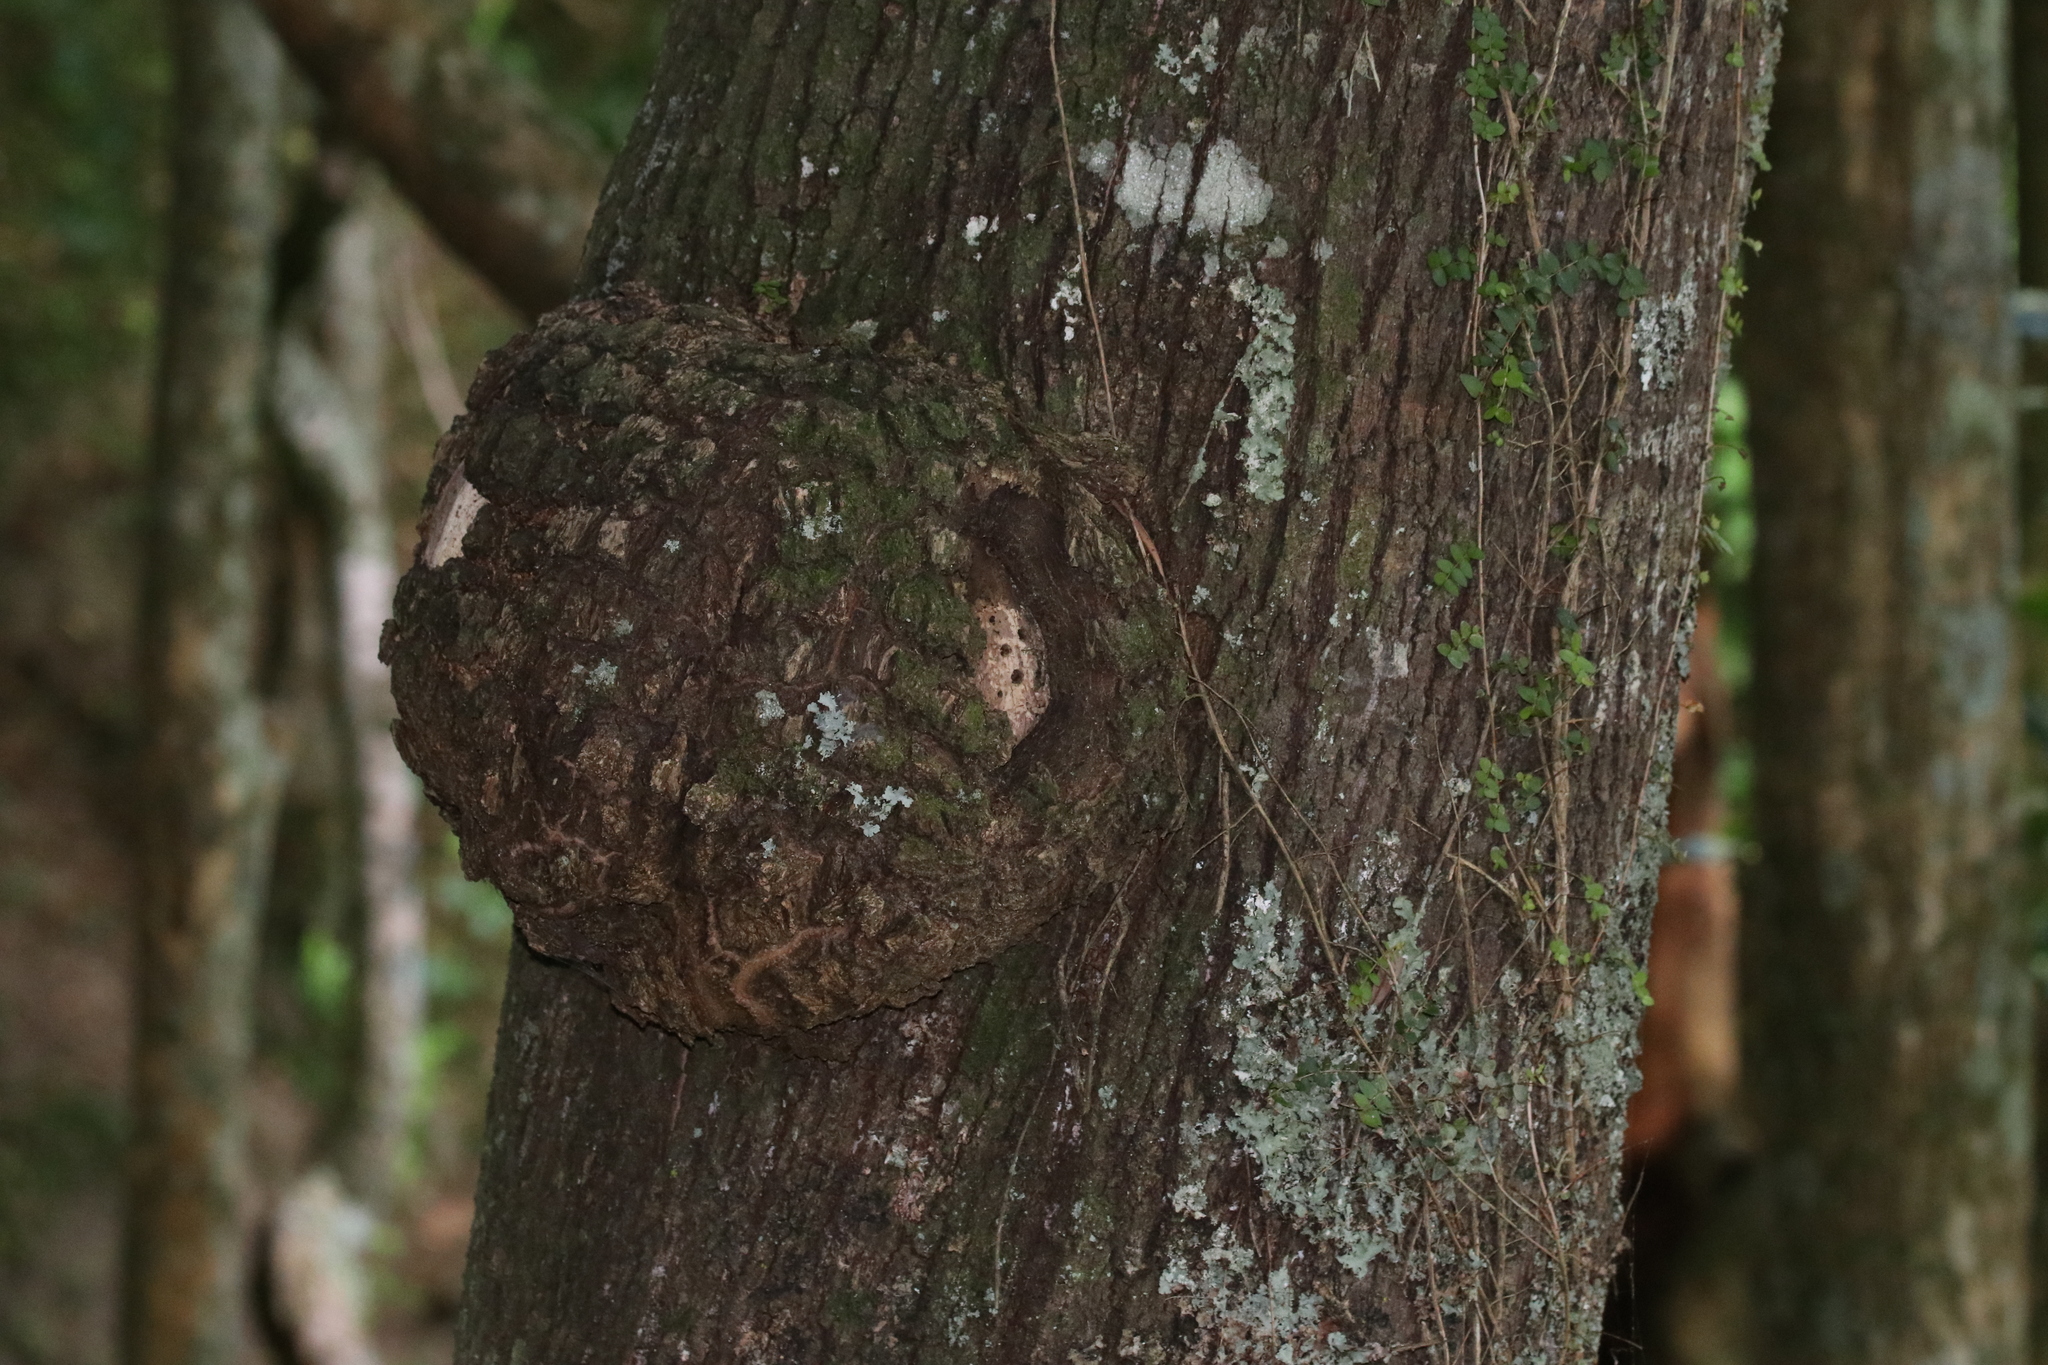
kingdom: Plantae
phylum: Tracheophyta
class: Magnoliopsida
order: Oxalidales
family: Elaeocarpaceae
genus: Elaeocarpus
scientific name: Elaeocarpus dentatus
